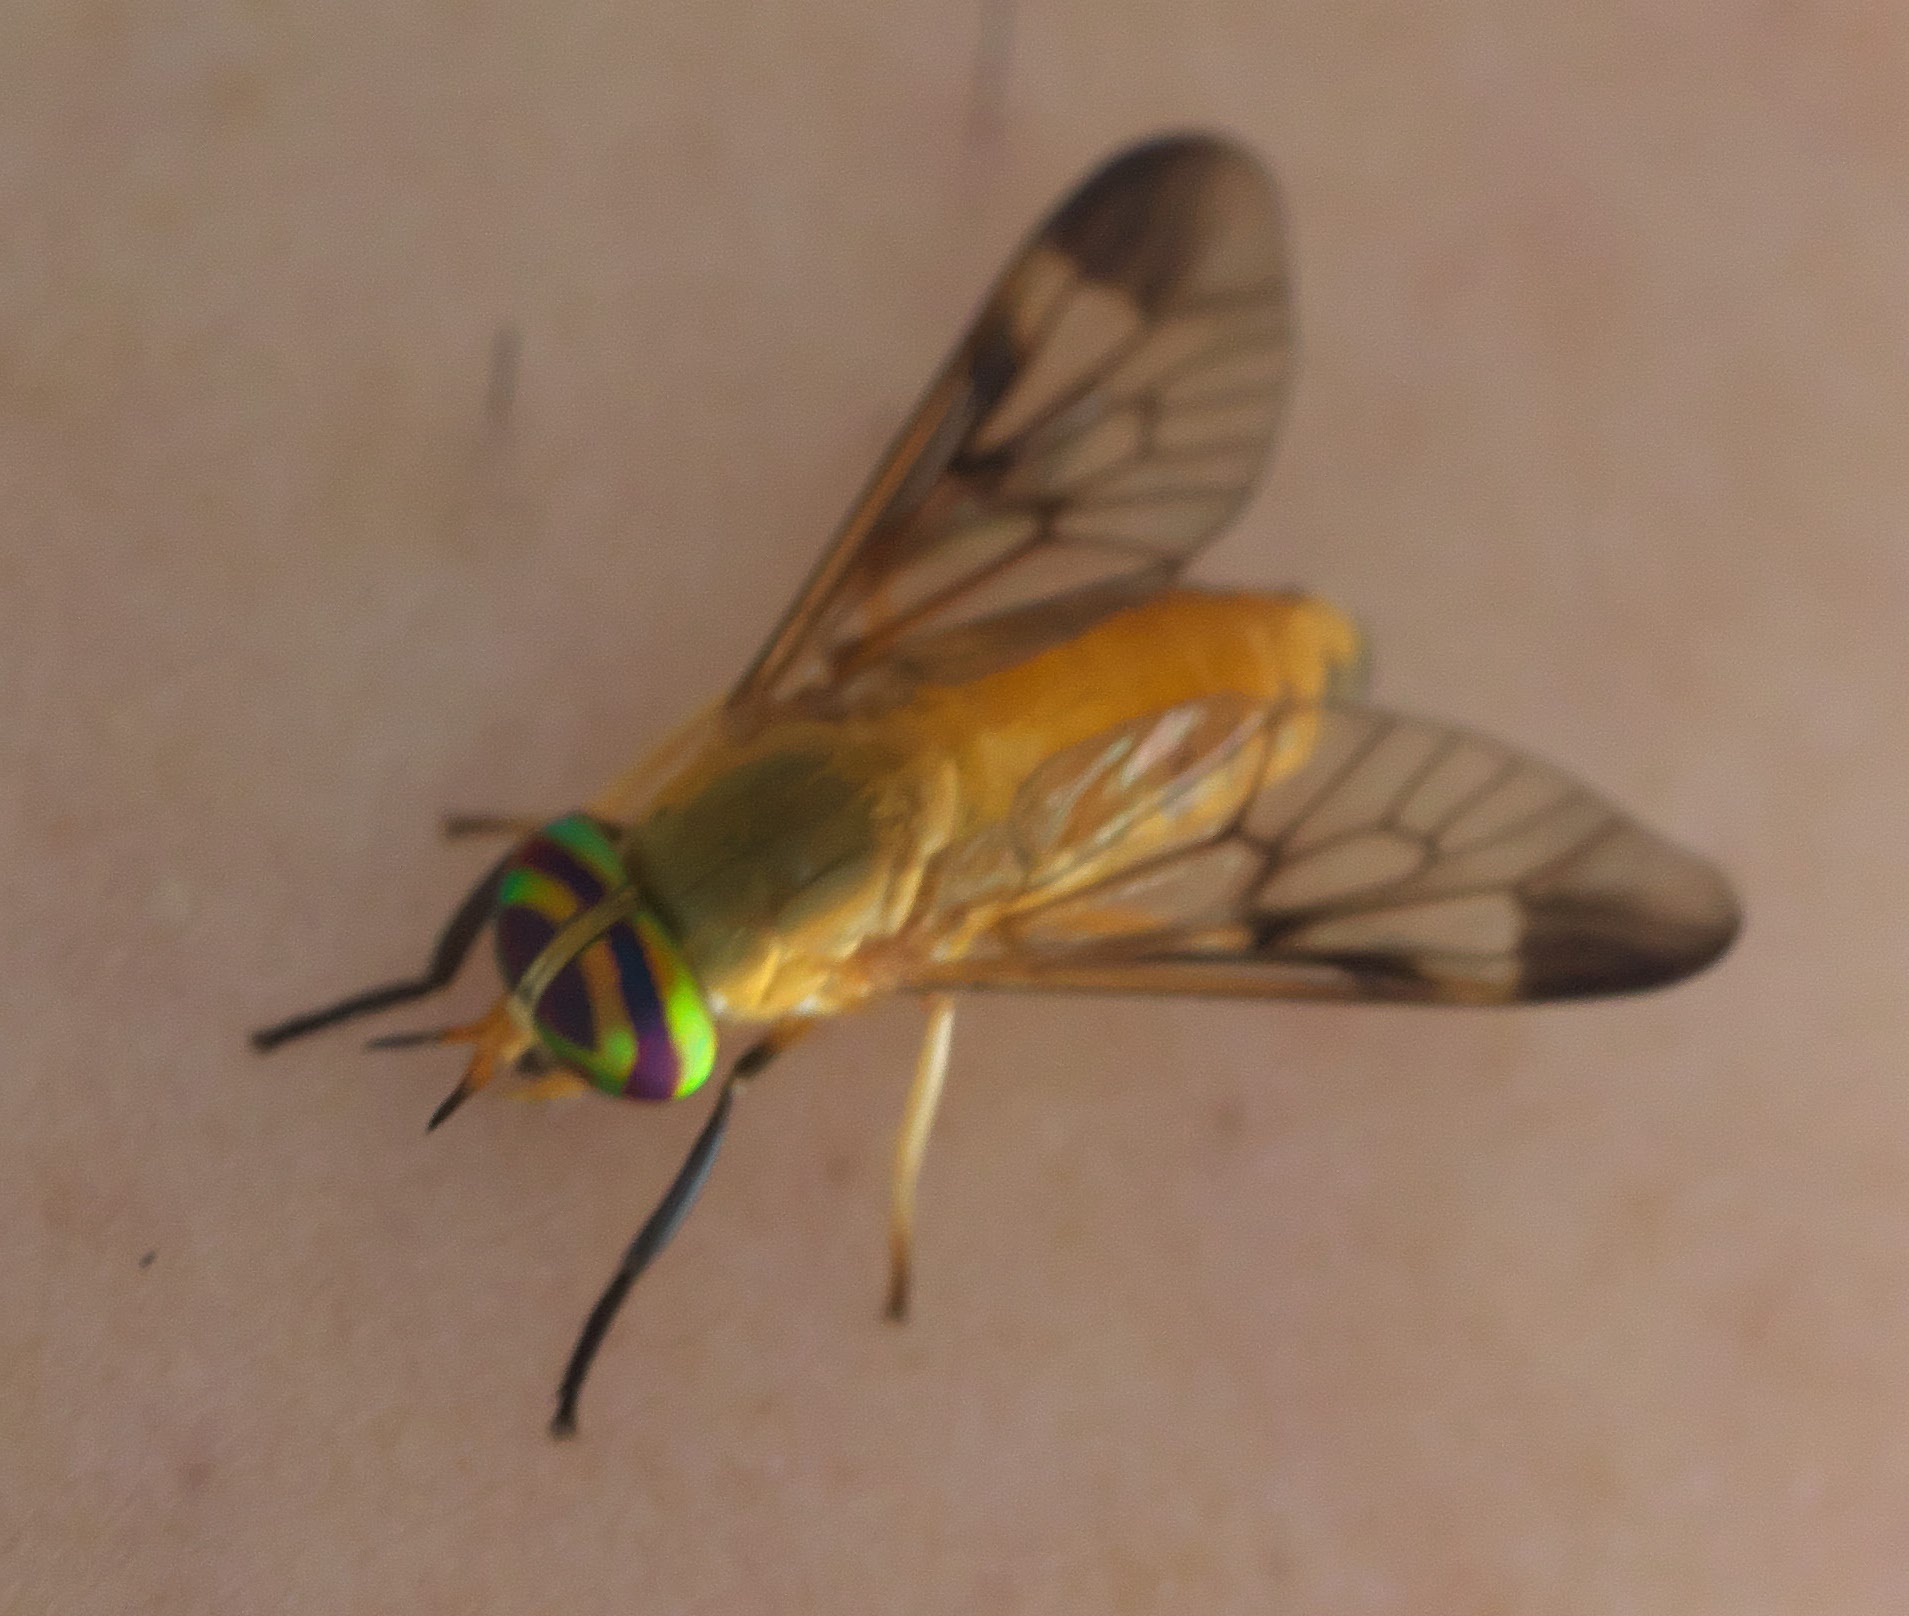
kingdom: Animalia
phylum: Arthropoda
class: Insecta
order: Diptera
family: Tabanidae
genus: Diachlorus
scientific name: Diachlorus ferrugatus
